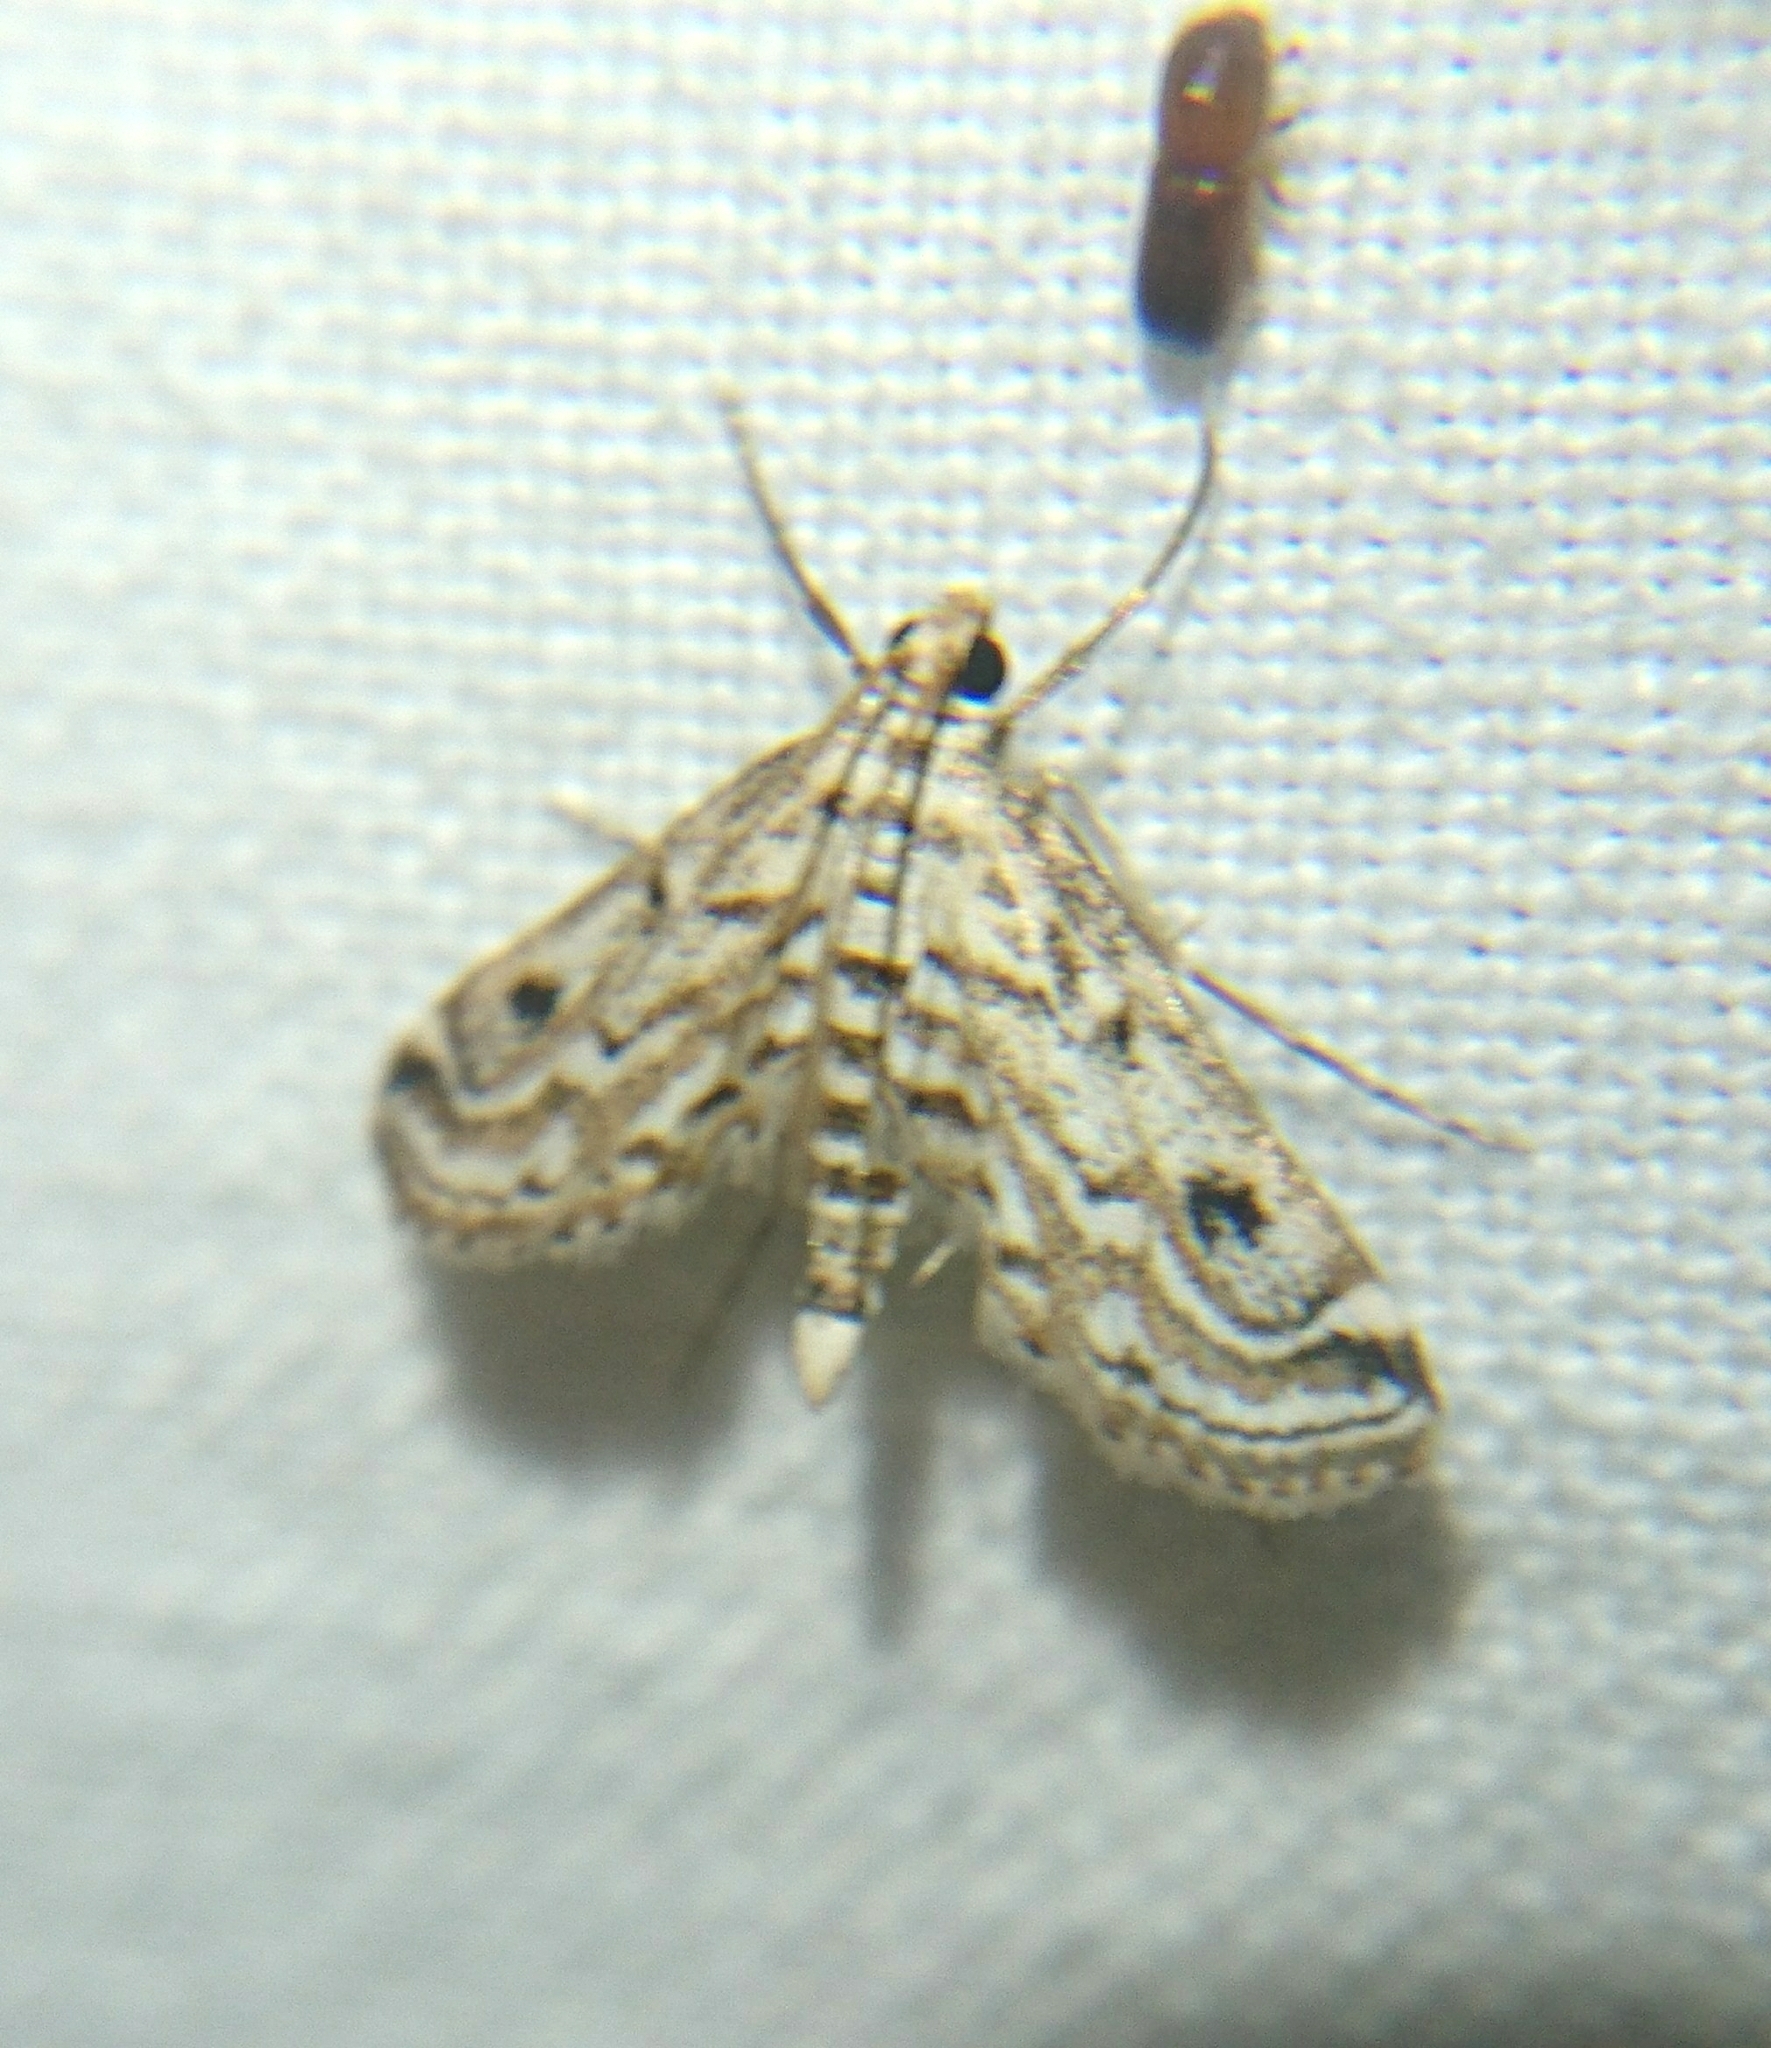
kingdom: Animalia
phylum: Arthropoda
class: Insecta
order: Lepidoptera
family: Crambidae
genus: Parapoynx
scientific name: Parapoynx allionealis
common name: Bladderwort casemaker
